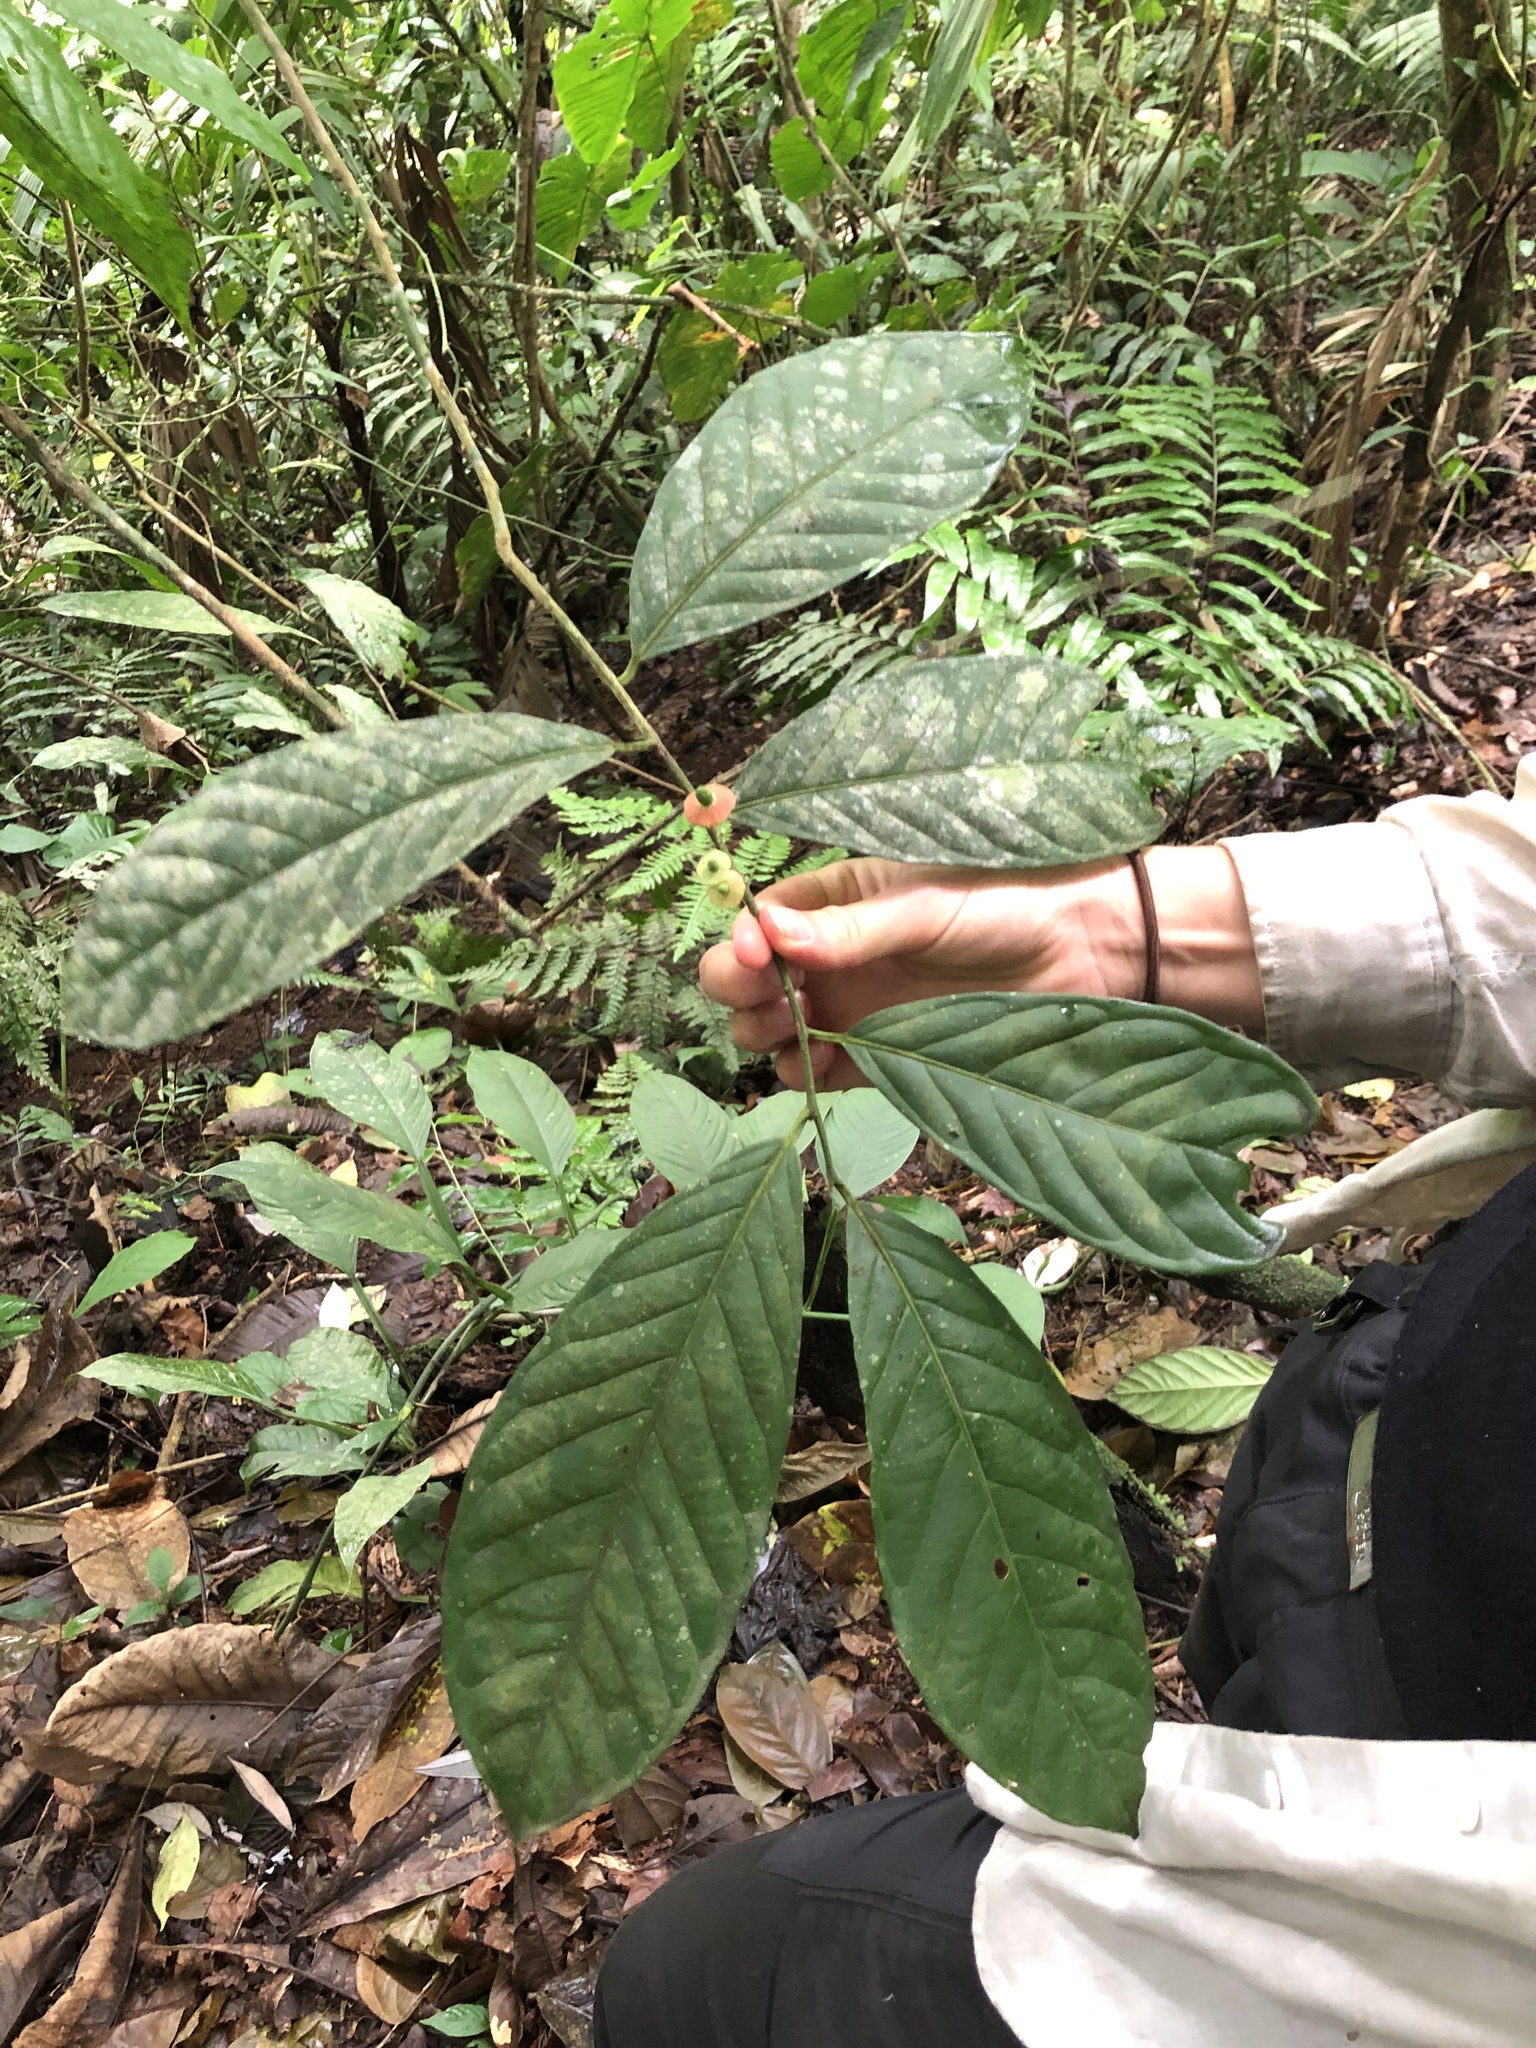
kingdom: Plantae
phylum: Tracheophyta
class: Magnoliopsida
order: Santalales
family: Erythropalaceae
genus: Heisteria
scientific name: Heisteria asplundii
